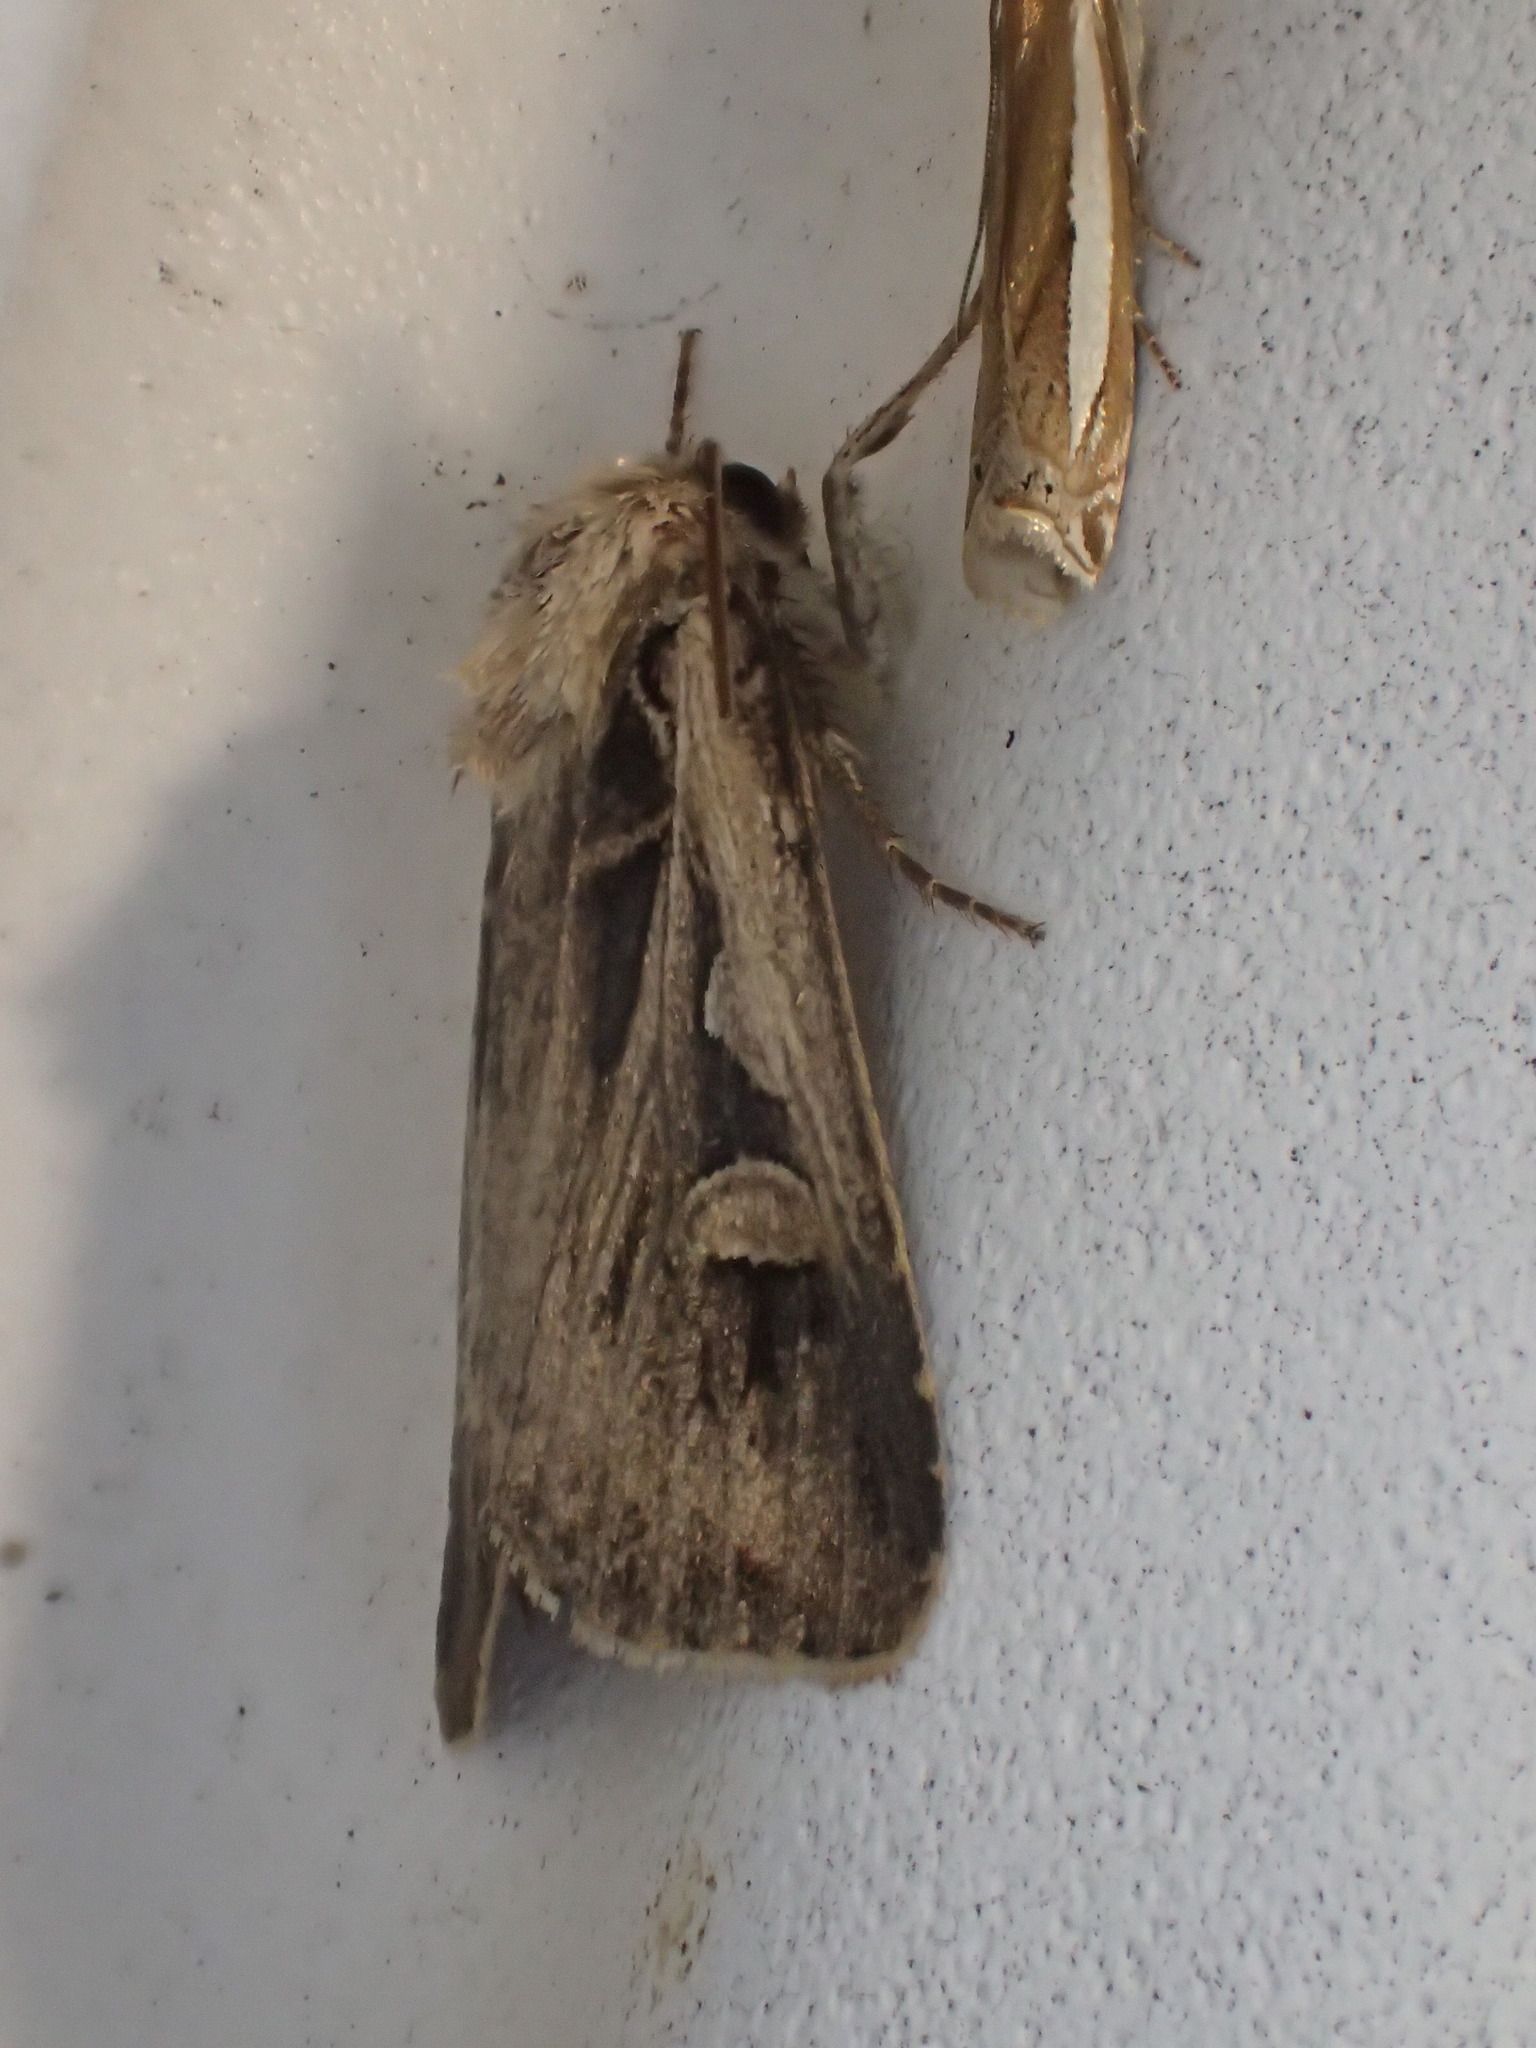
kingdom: Animalia
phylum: Arthropoda
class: Insecta
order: Lepidoptera
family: Noctuidae
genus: Feltia
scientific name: Feltia
